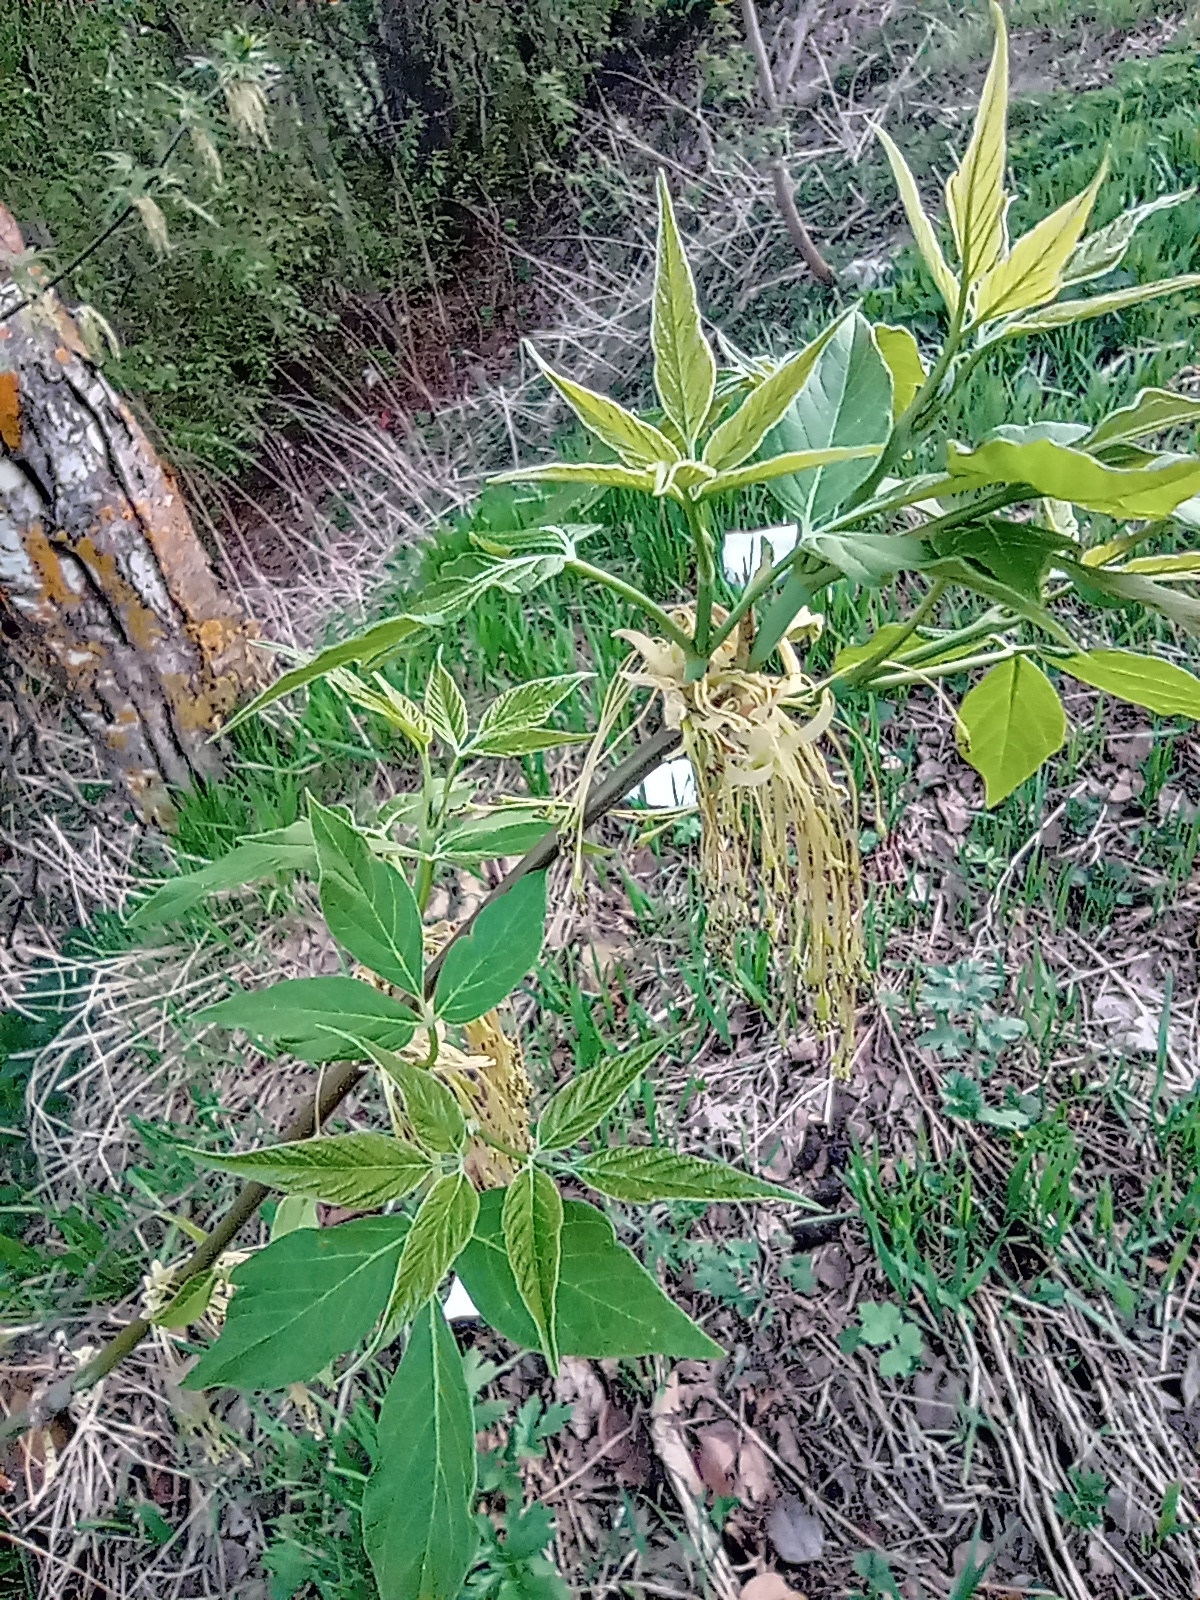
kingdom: Plantae
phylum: Tracheophyta
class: Magnoliopsida
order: Sapindales
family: Sapindaceae
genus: Acer
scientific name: Acer negundo
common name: Ashleaf maple
